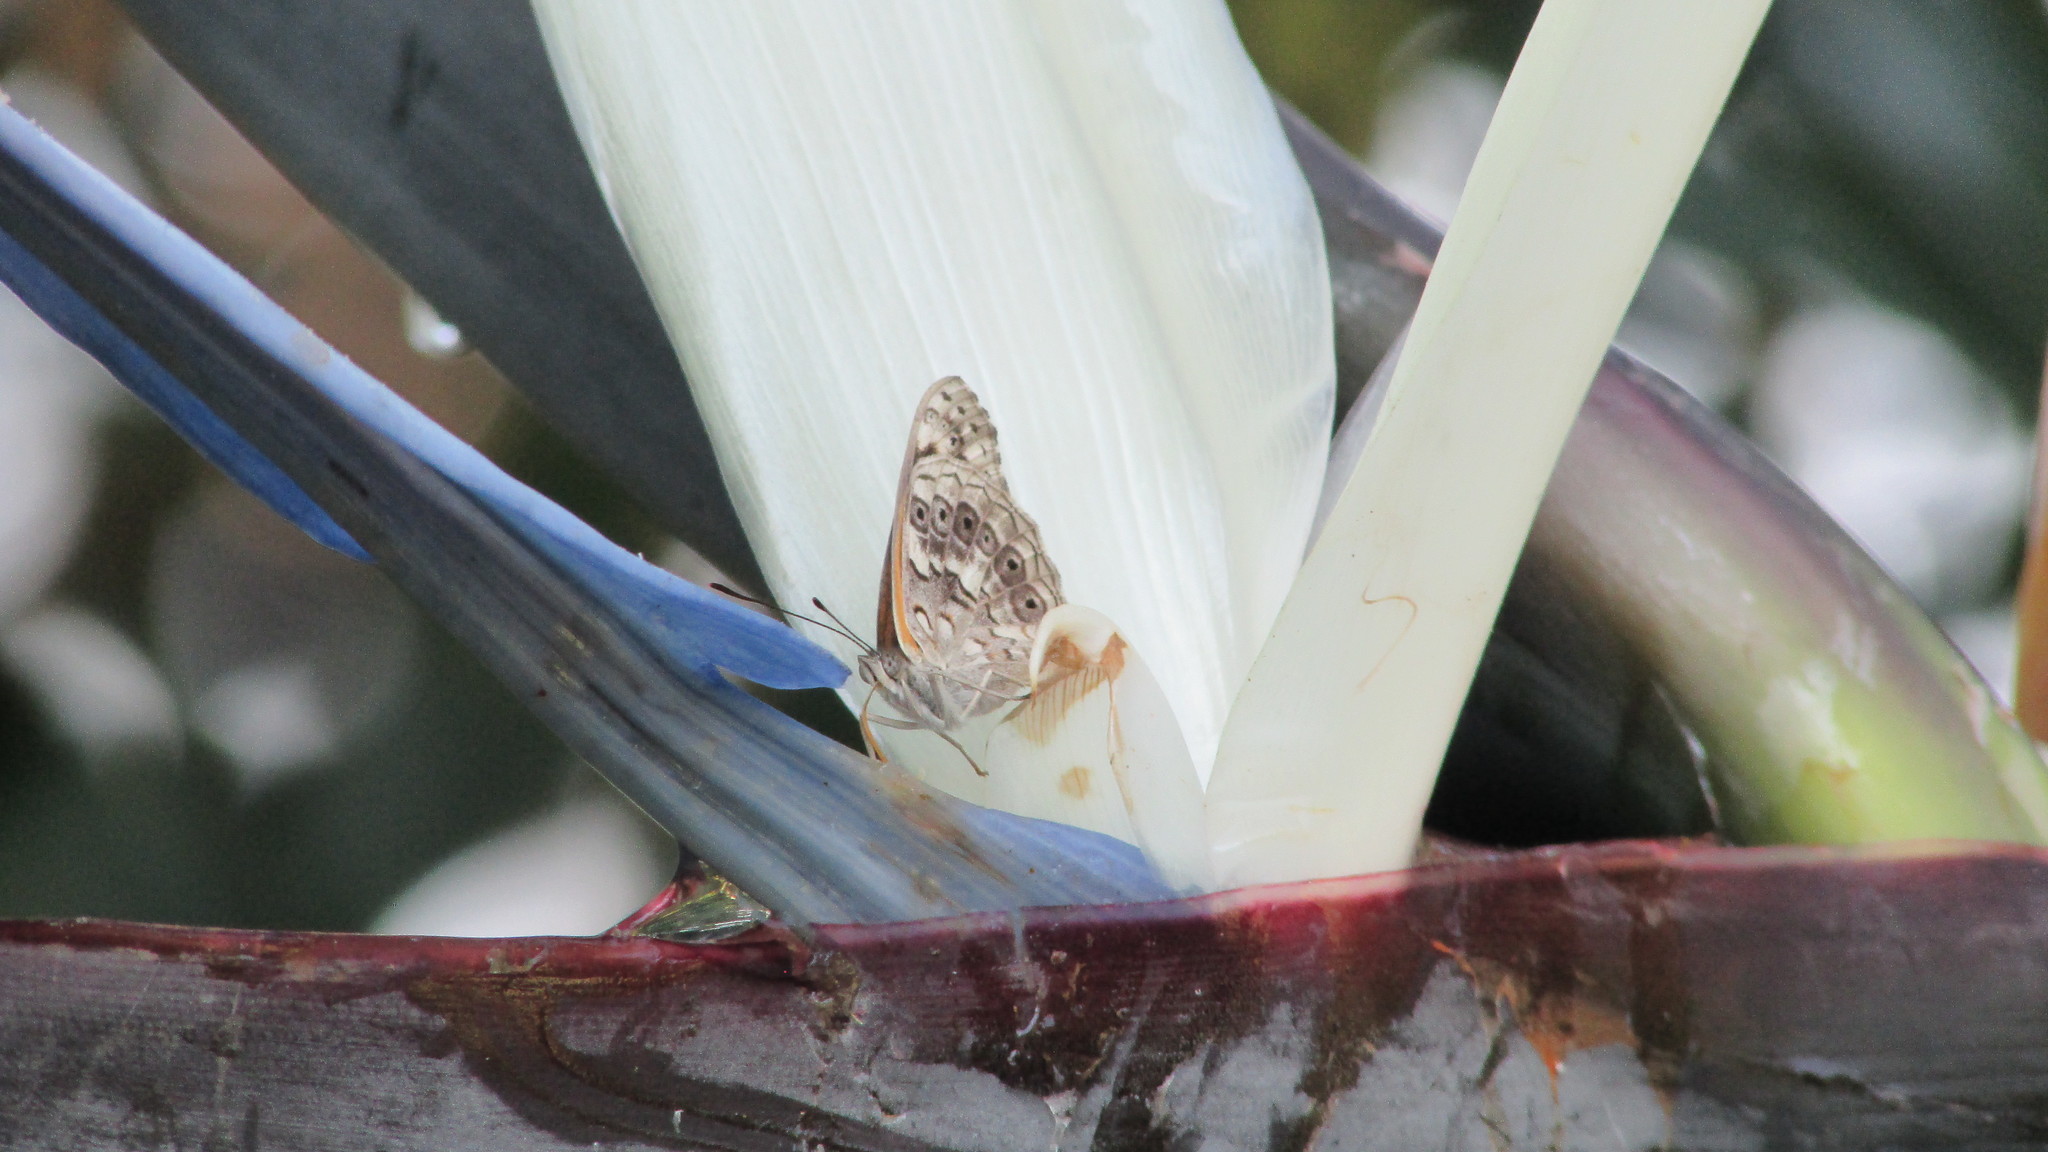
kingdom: Animalia
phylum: Arthropoda
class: Insecta
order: Lepidoptera
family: Nymphalidae
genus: Asterope
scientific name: Asterope boisduvali
